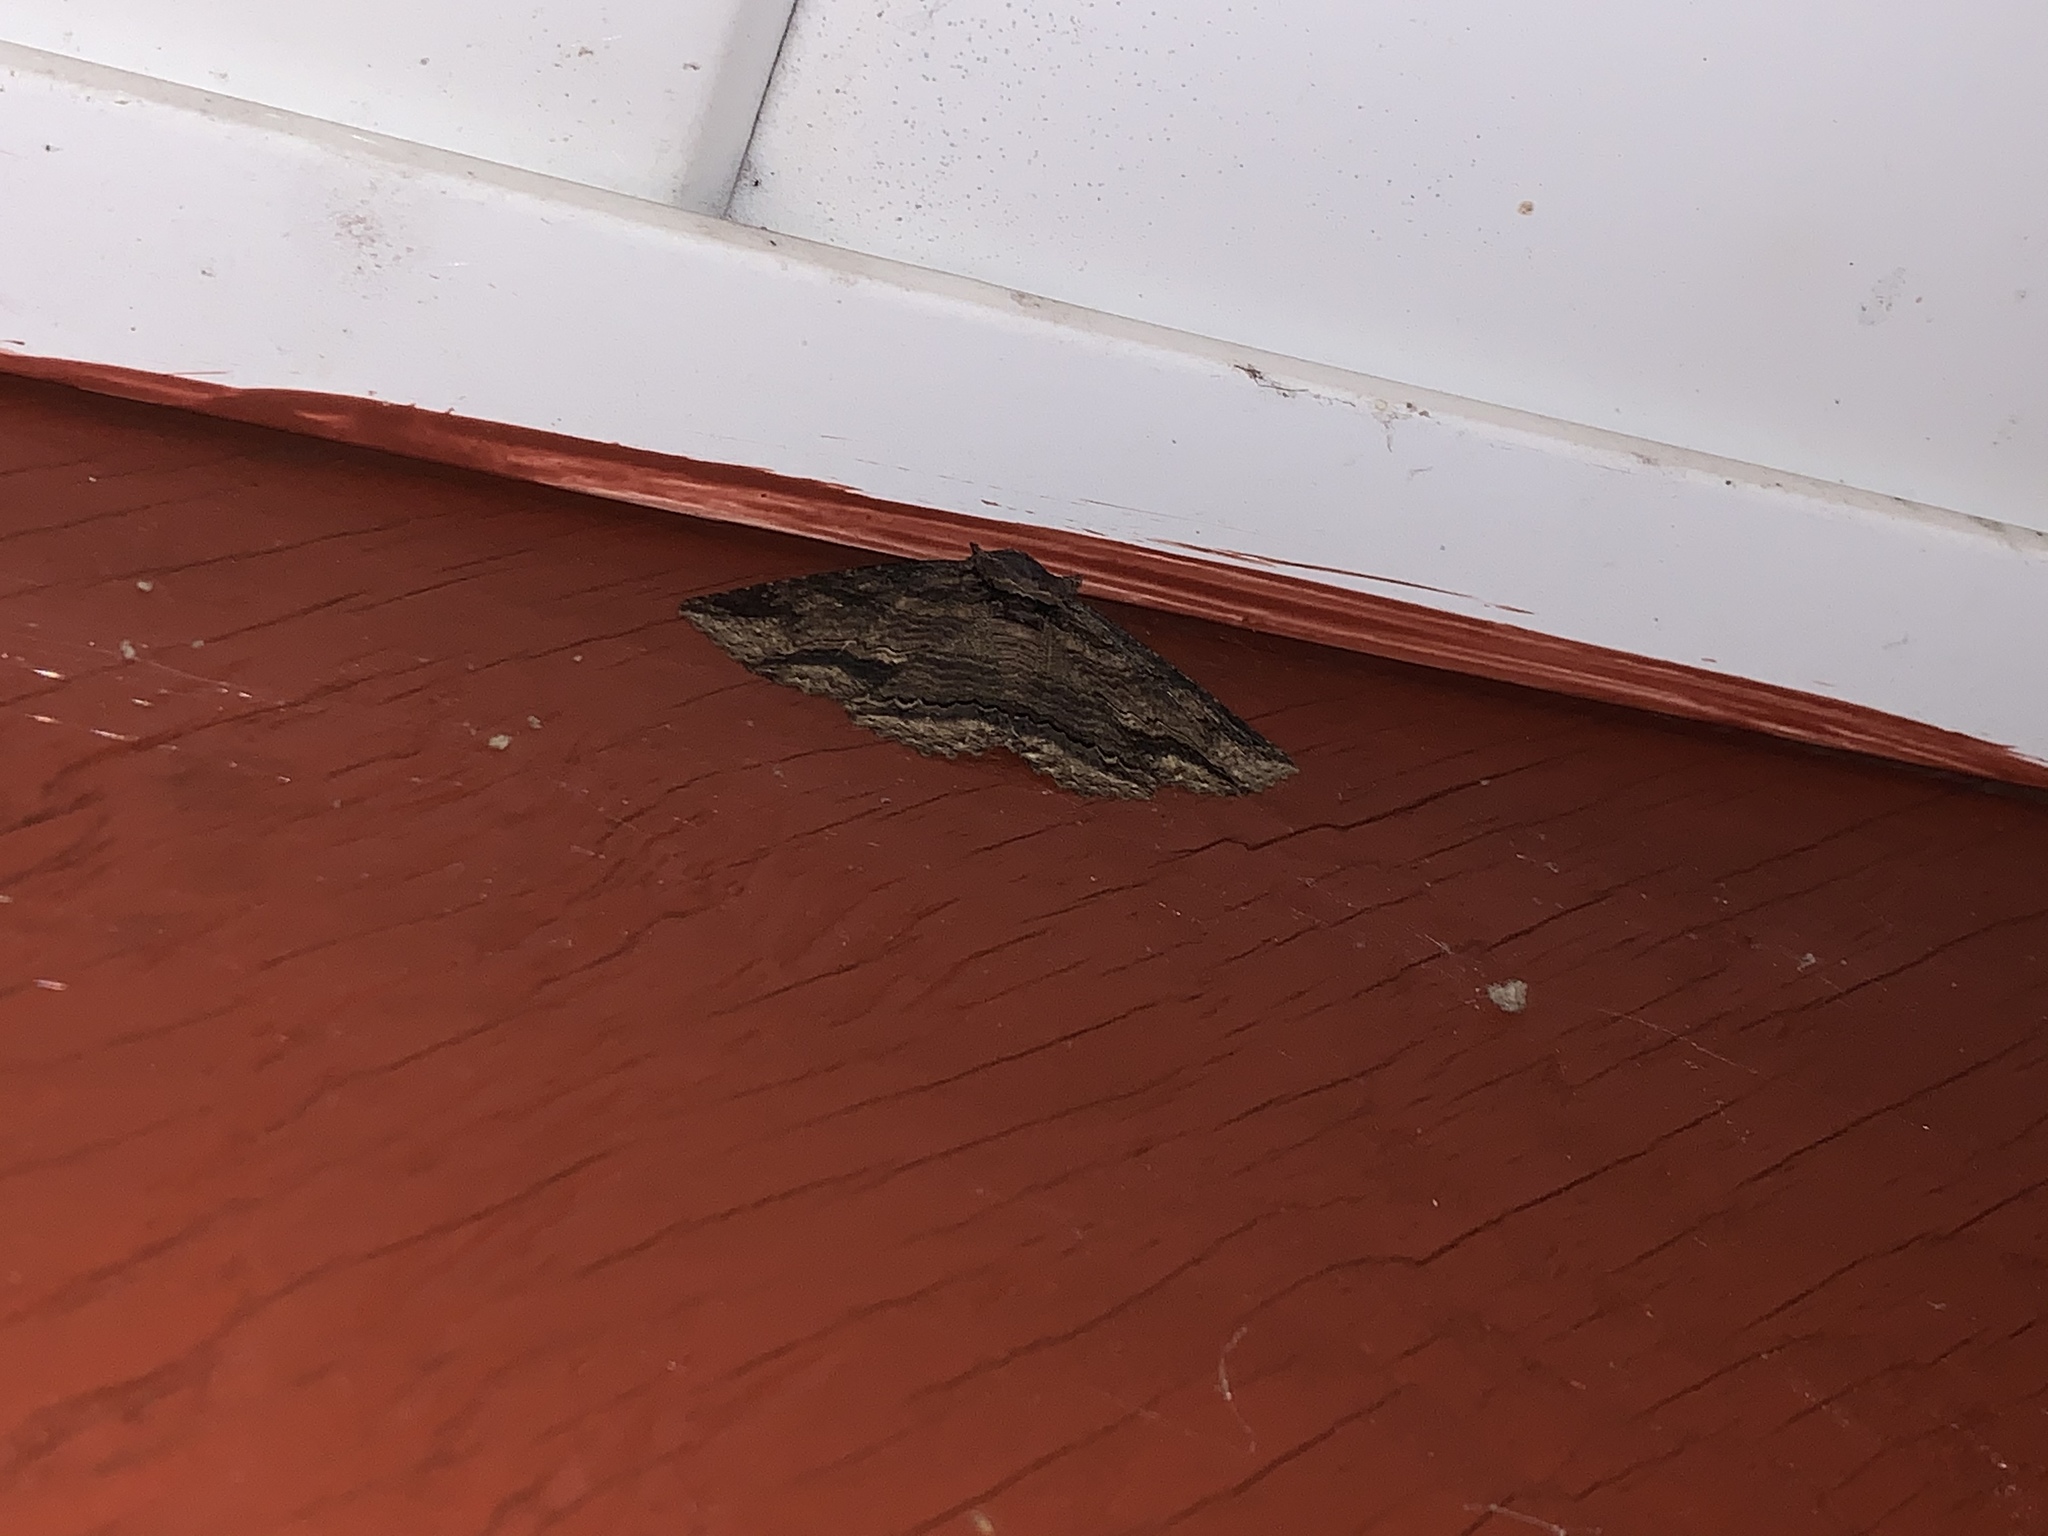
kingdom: Animalia
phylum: Arthropoda
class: Insecta
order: Lepidoptera
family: Erebidae
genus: Zale
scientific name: Zale lunata
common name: Lunate zale moth
